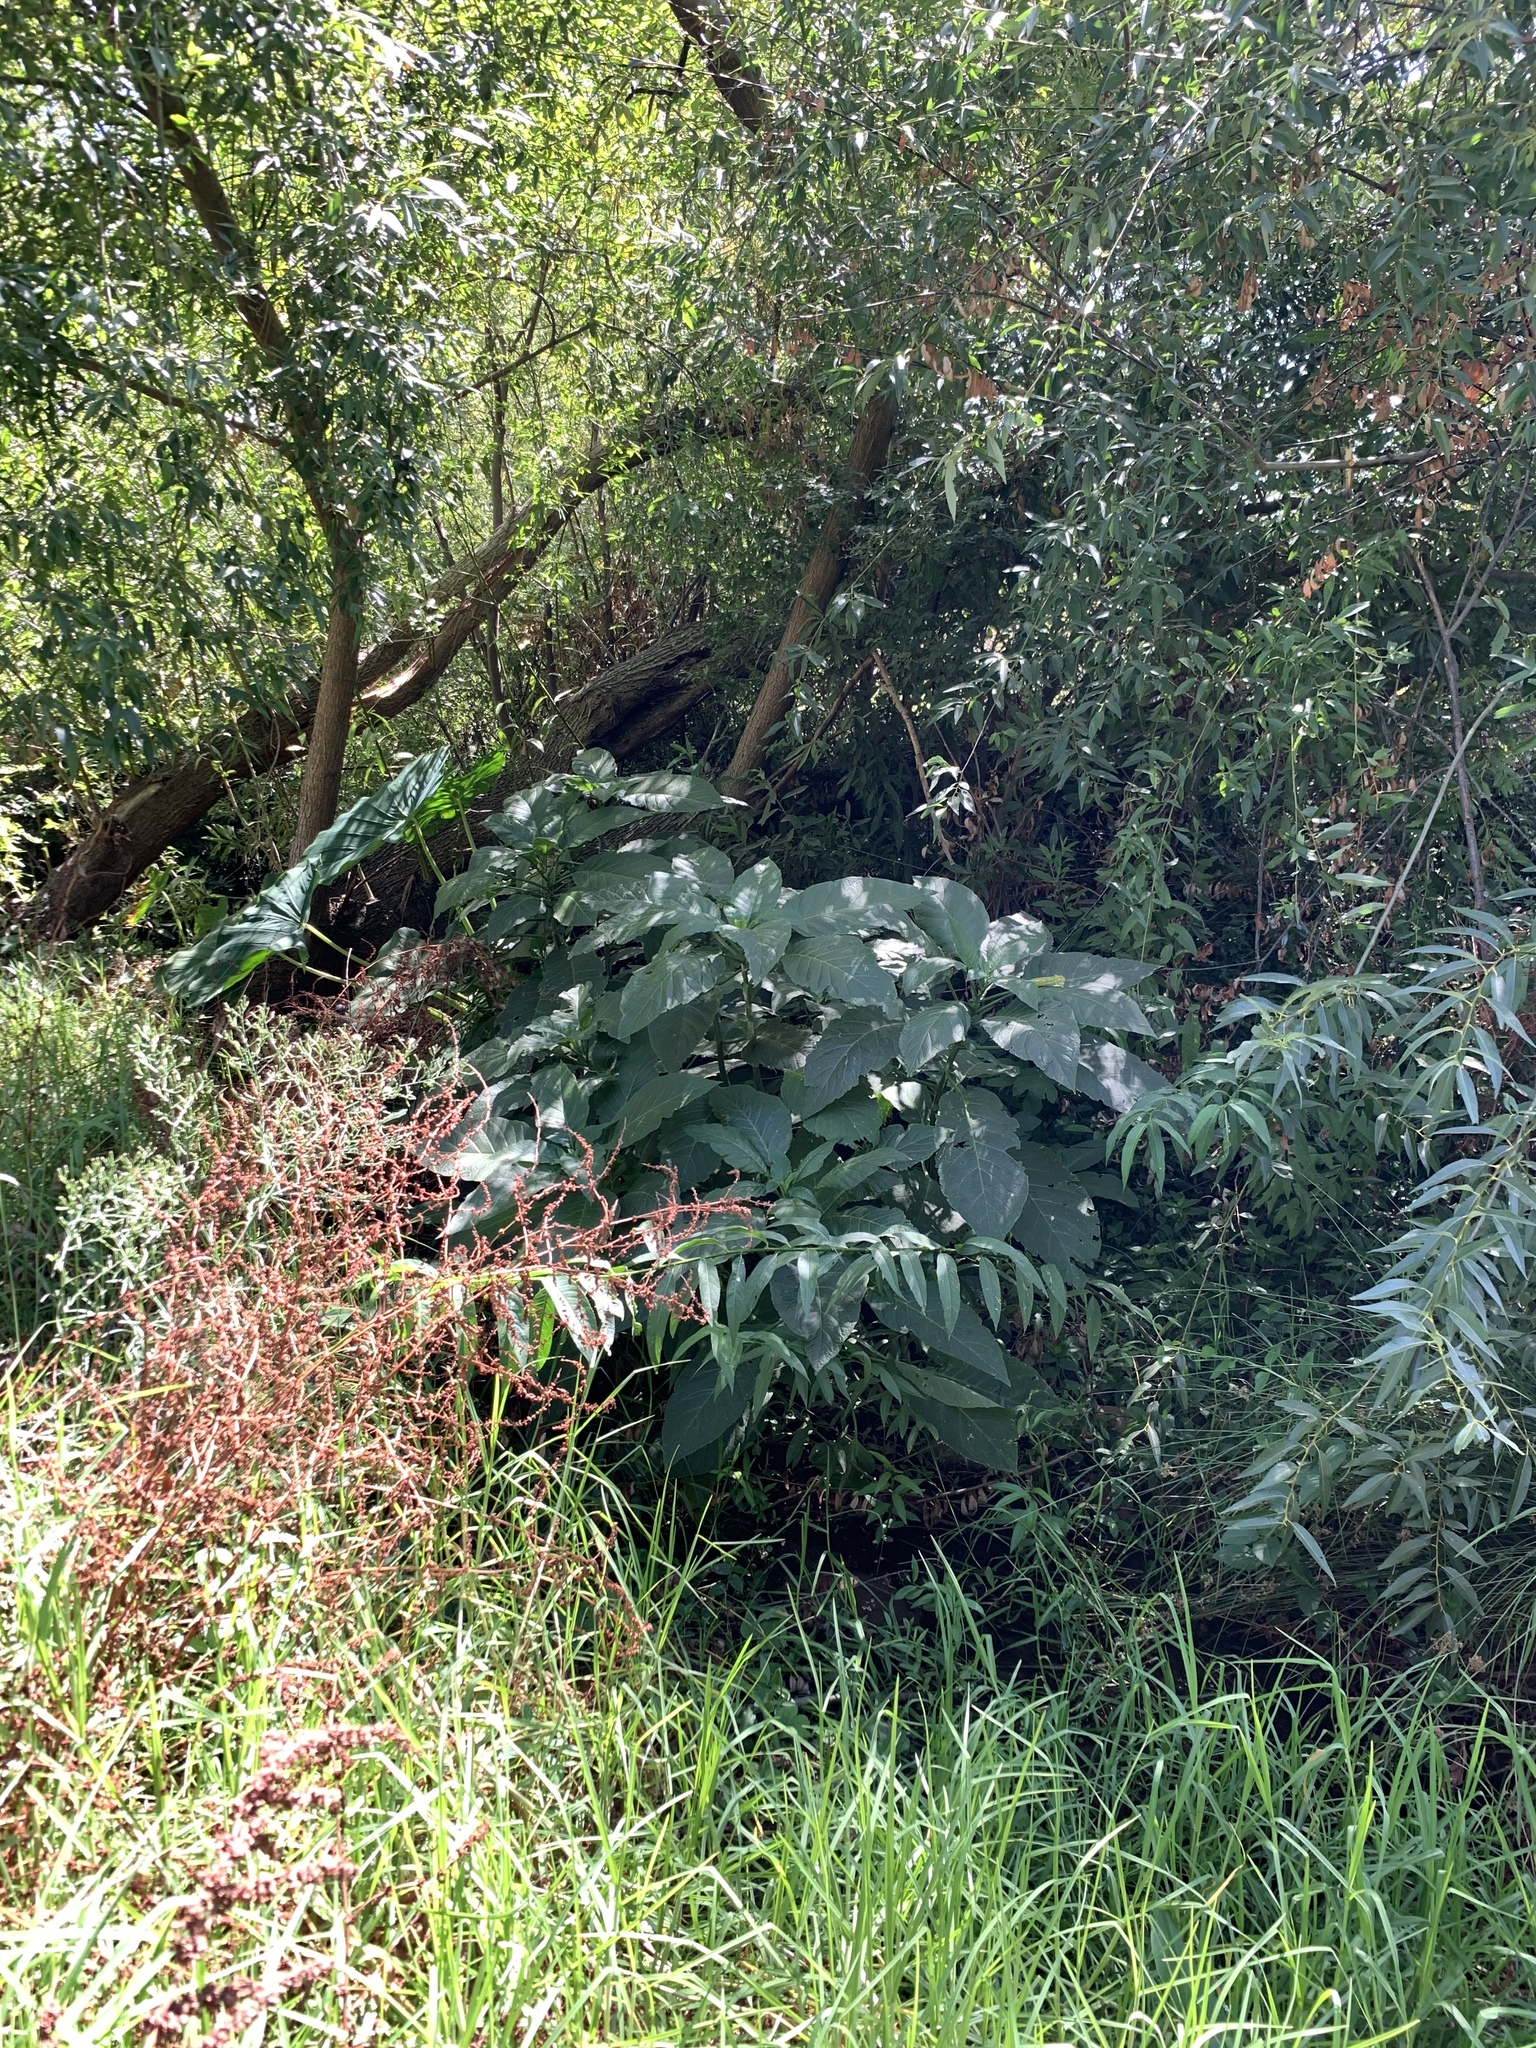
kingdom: Plantae
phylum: Tracheophyta
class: Liliopsida
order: Alismatales
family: Araceae
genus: Colocasia
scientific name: Colocasia esculenta
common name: Taro
